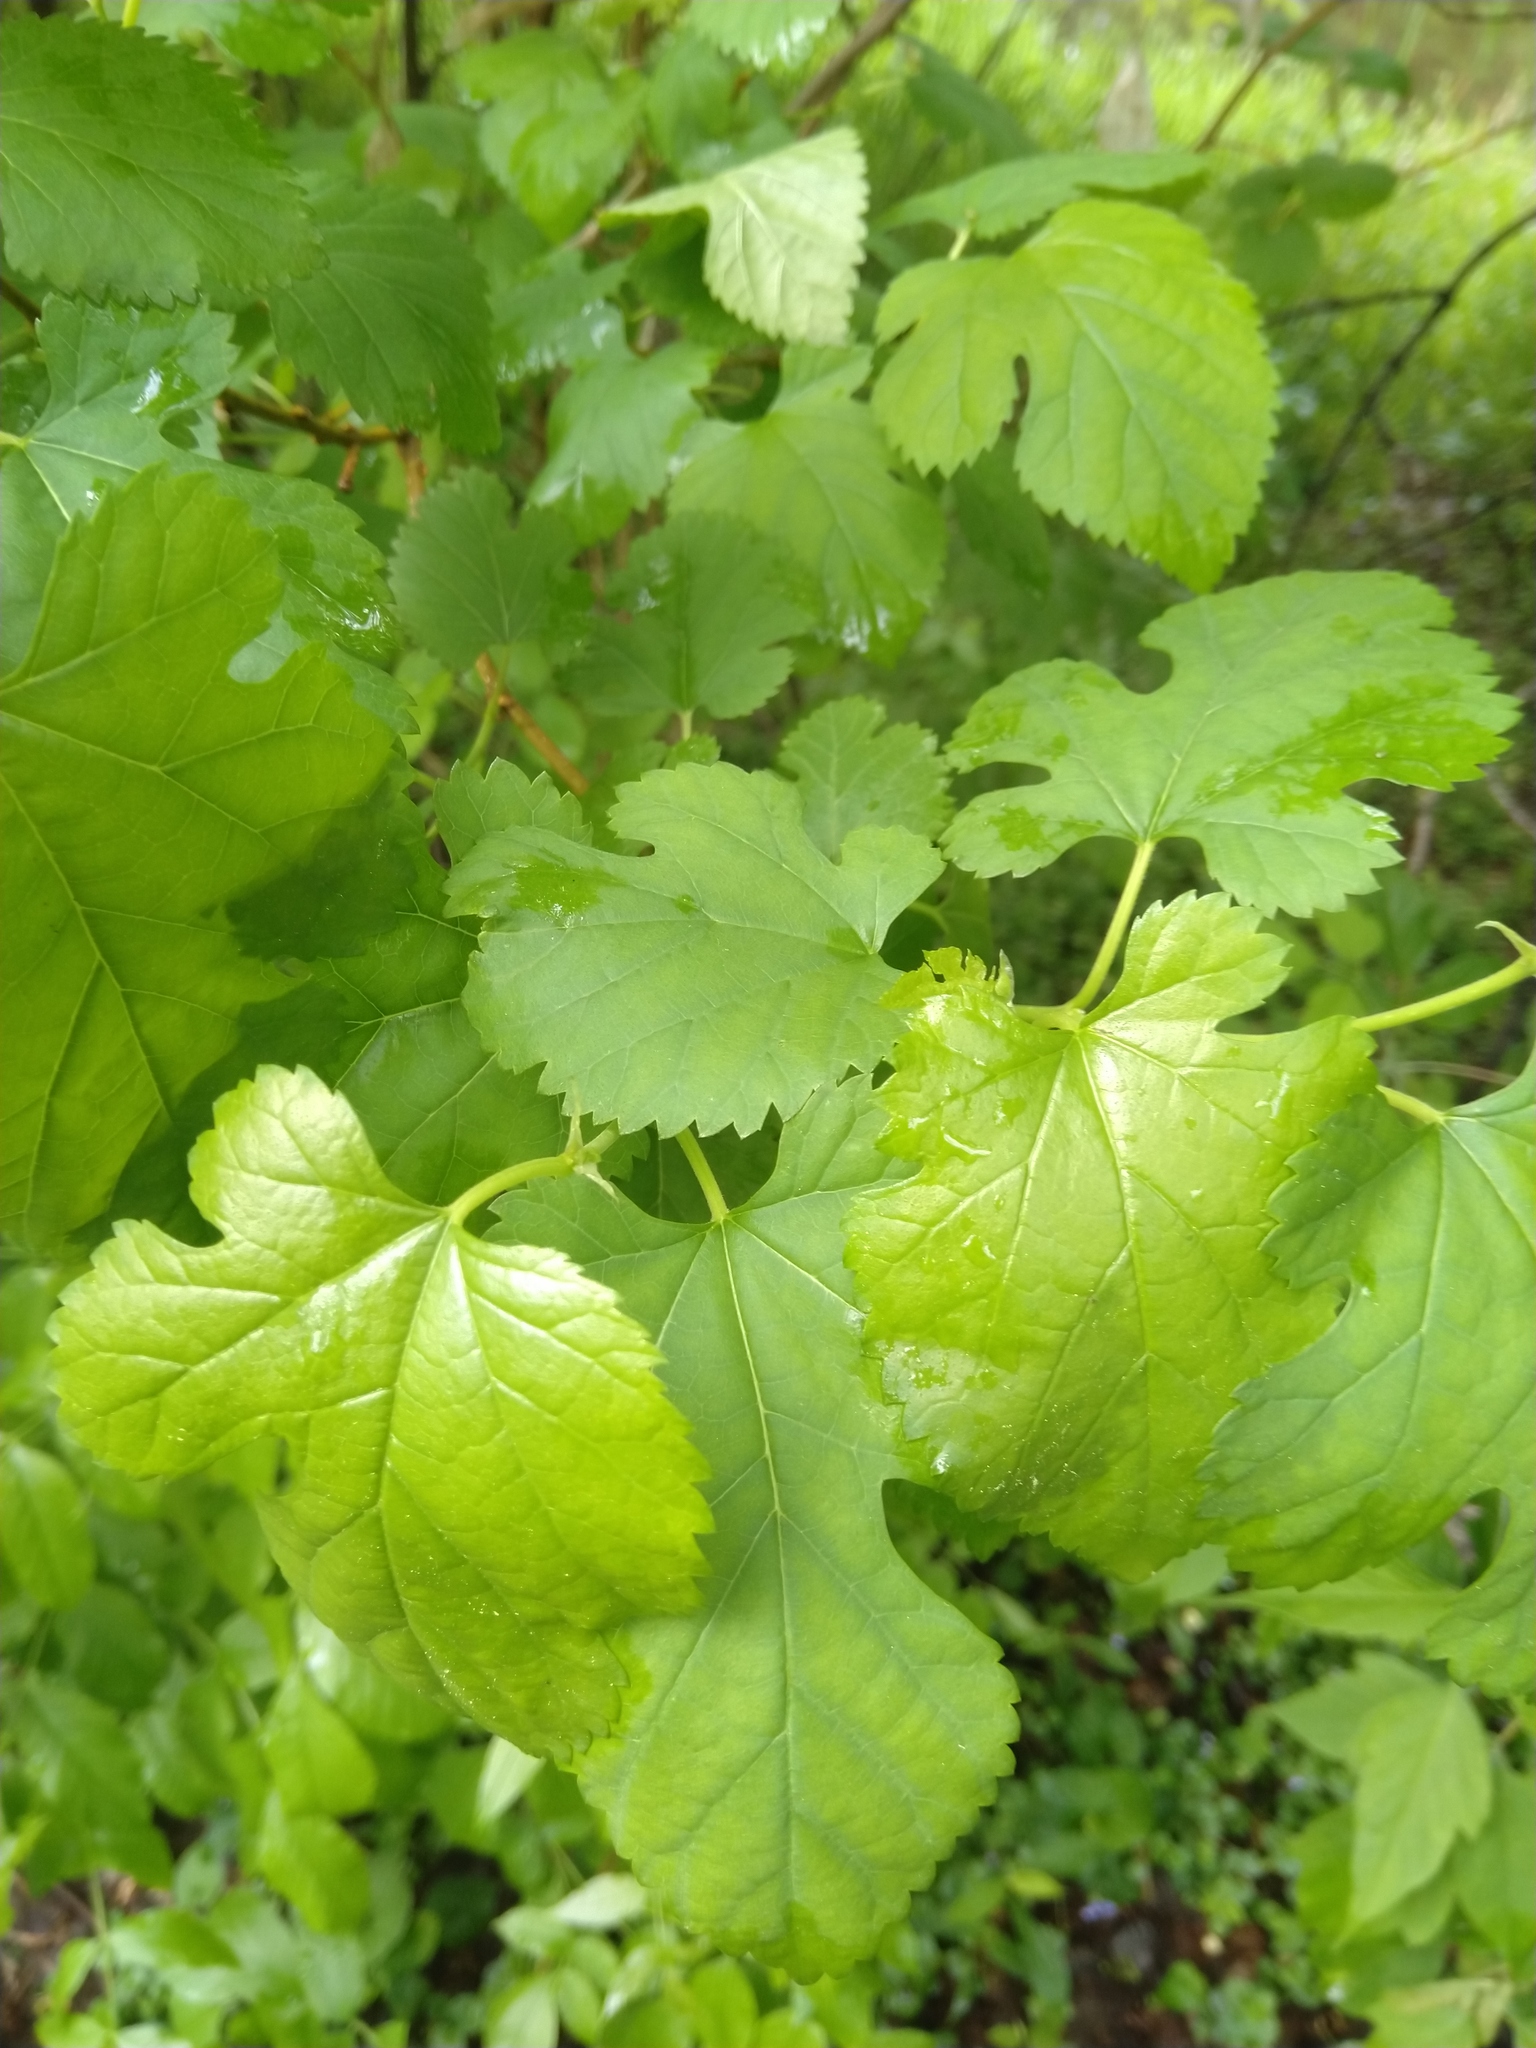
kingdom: Plantae
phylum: Tracheophyta
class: Magnoliopsida
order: Rosales
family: Moraceae
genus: Morus
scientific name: Morus alba
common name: White mulberry
